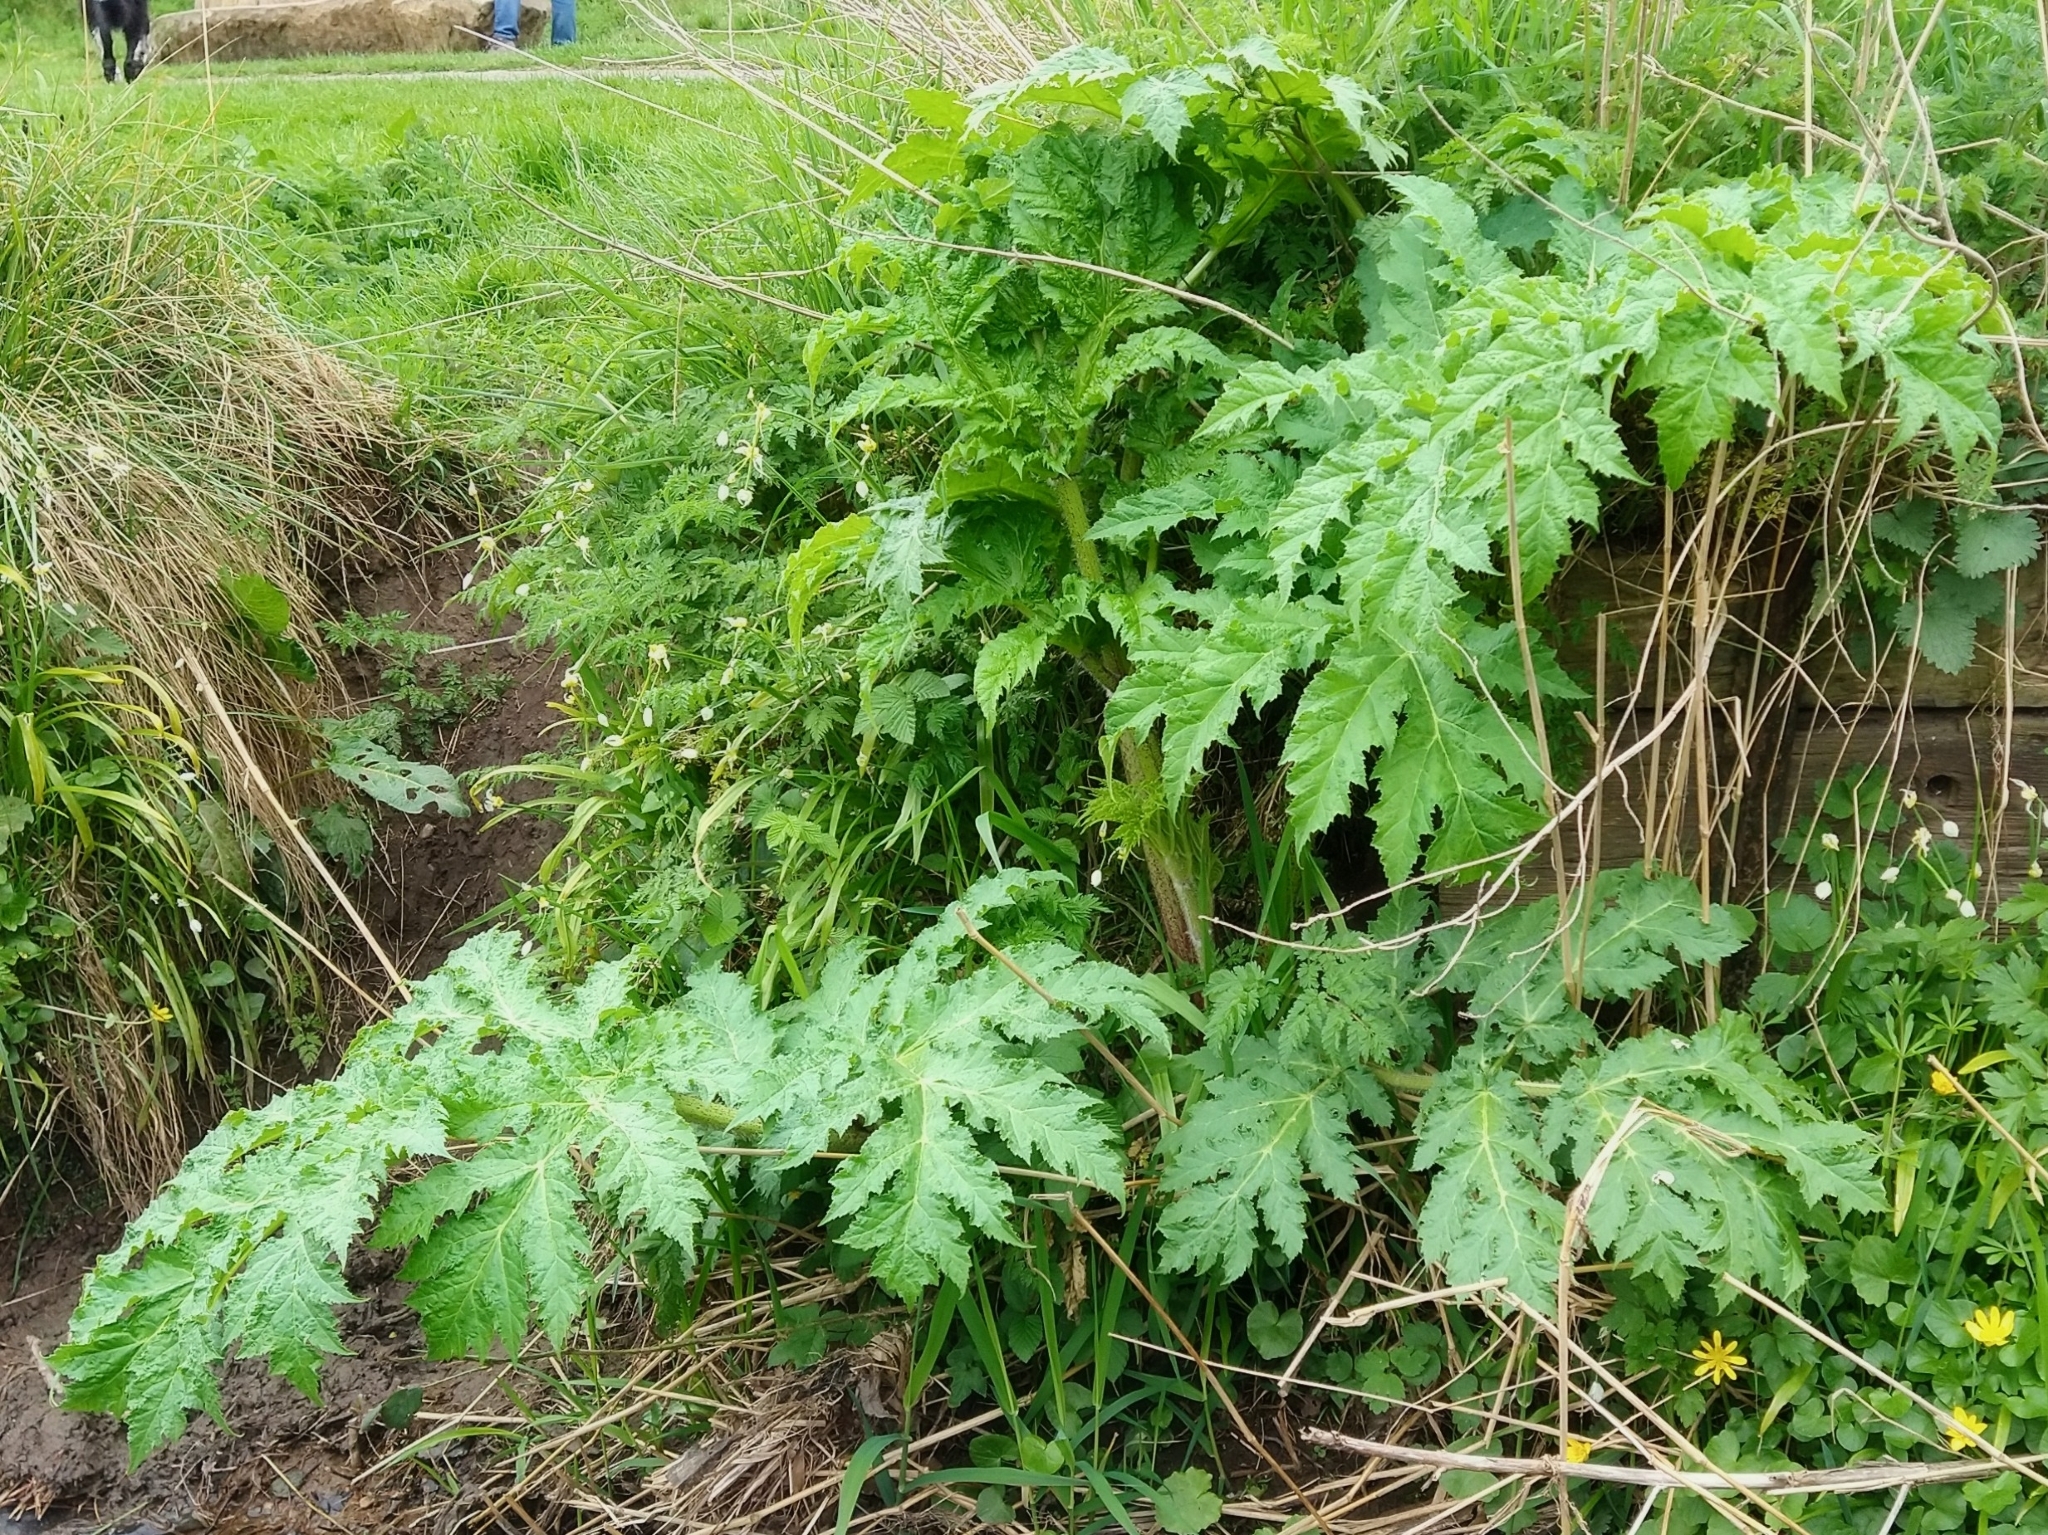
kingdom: Plantae
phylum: Tracheophyta
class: Magnoliopsida
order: Apiales
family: Apiaceae
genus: Heracleum
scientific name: Heracleum mantegazzianum
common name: Giant hogweed
